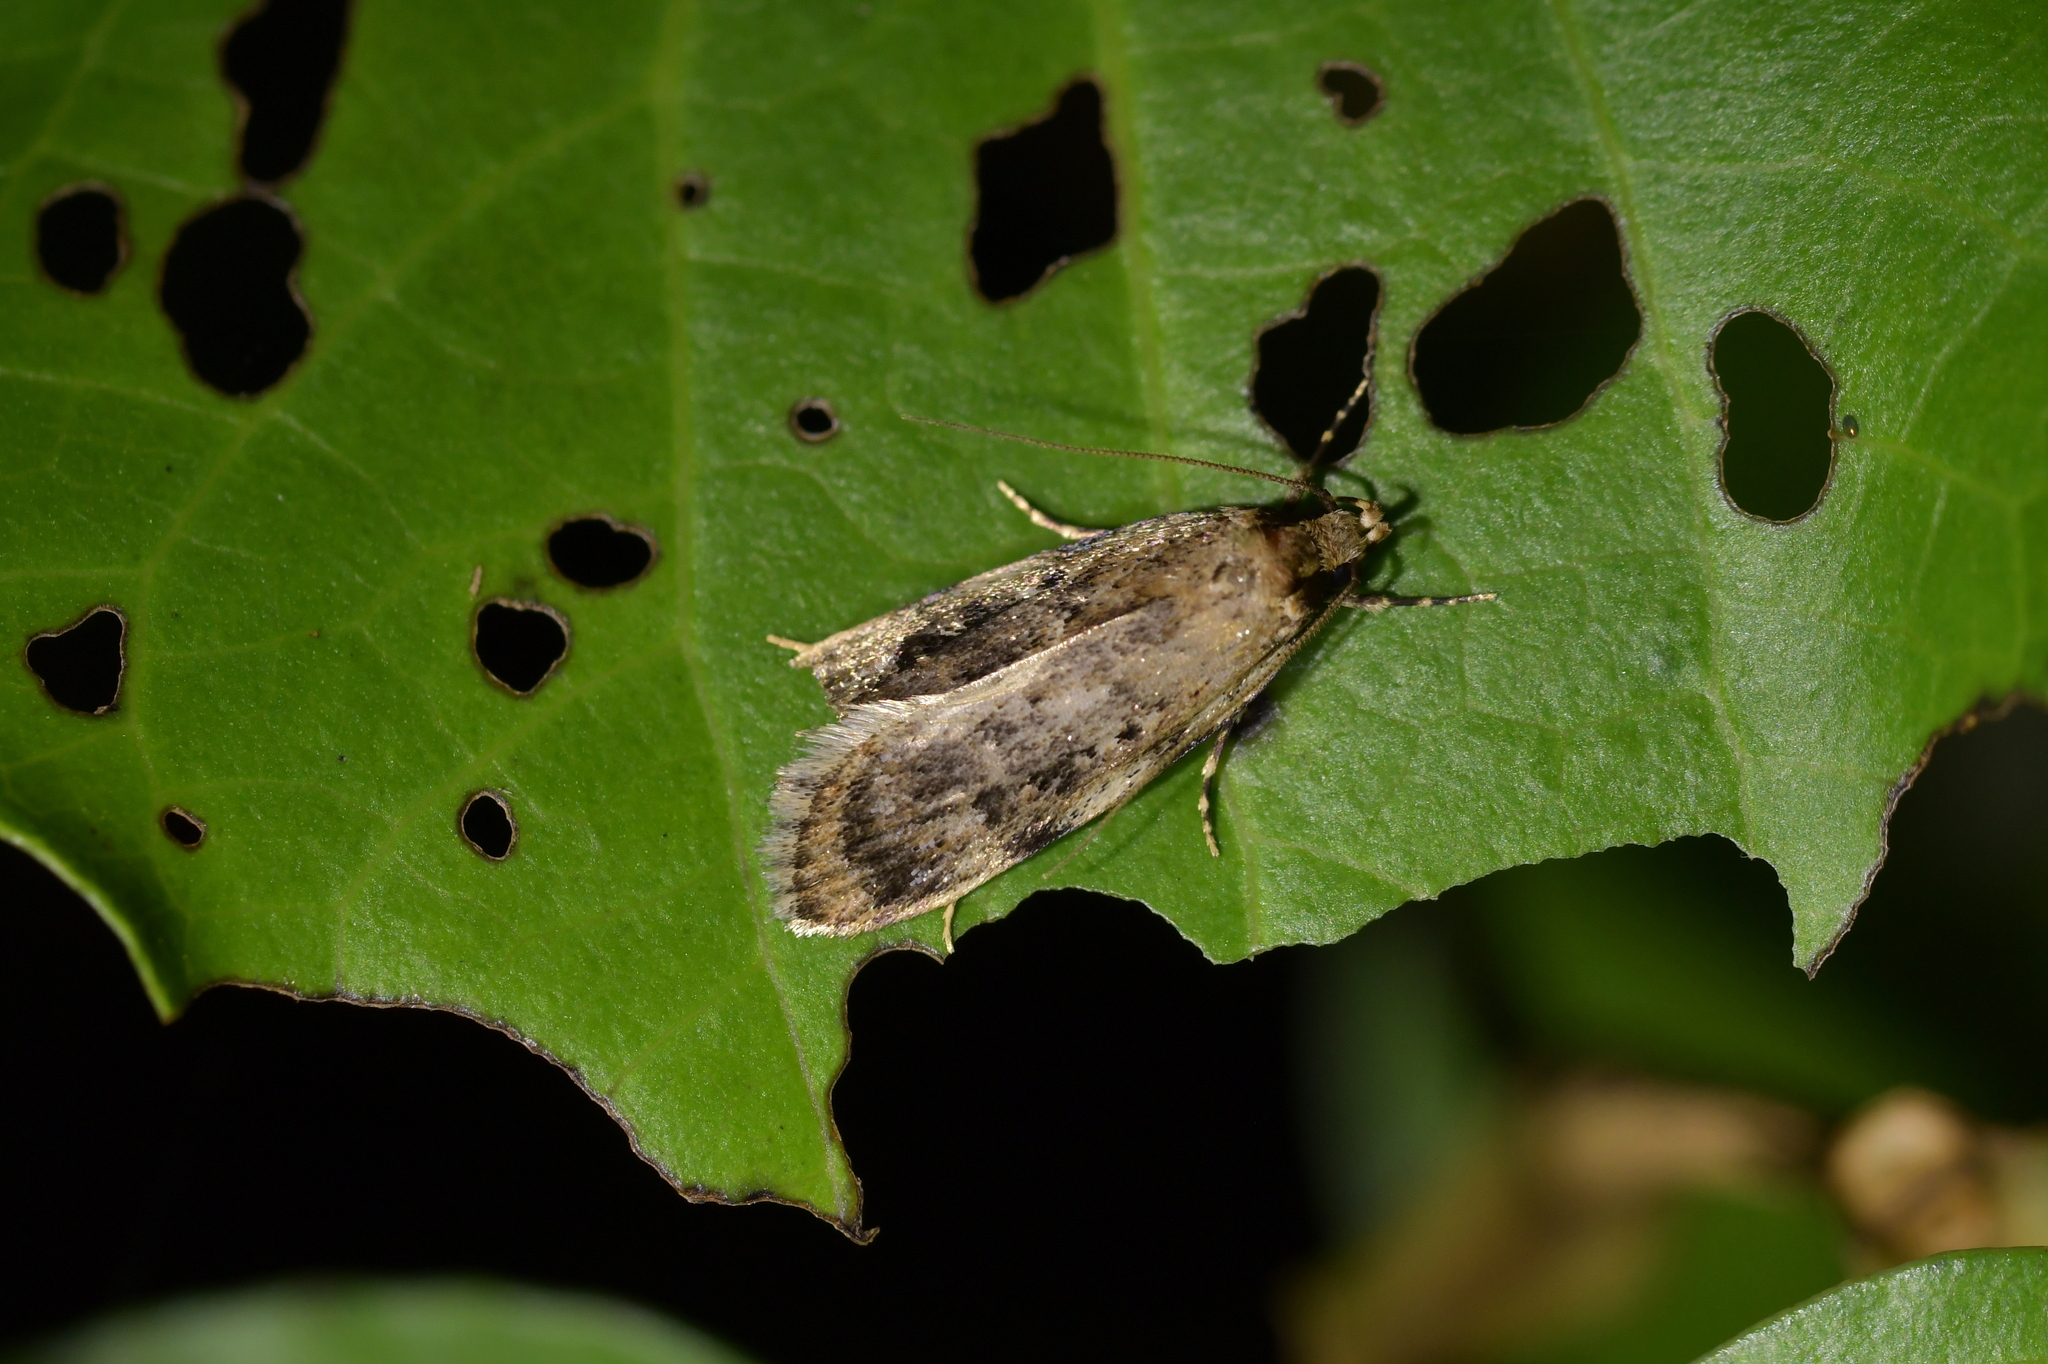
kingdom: Animalia
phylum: Arthropoda
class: Insecta
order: Lepidoptera
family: Oecophoridae
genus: Barea
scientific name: Barea exarcha
